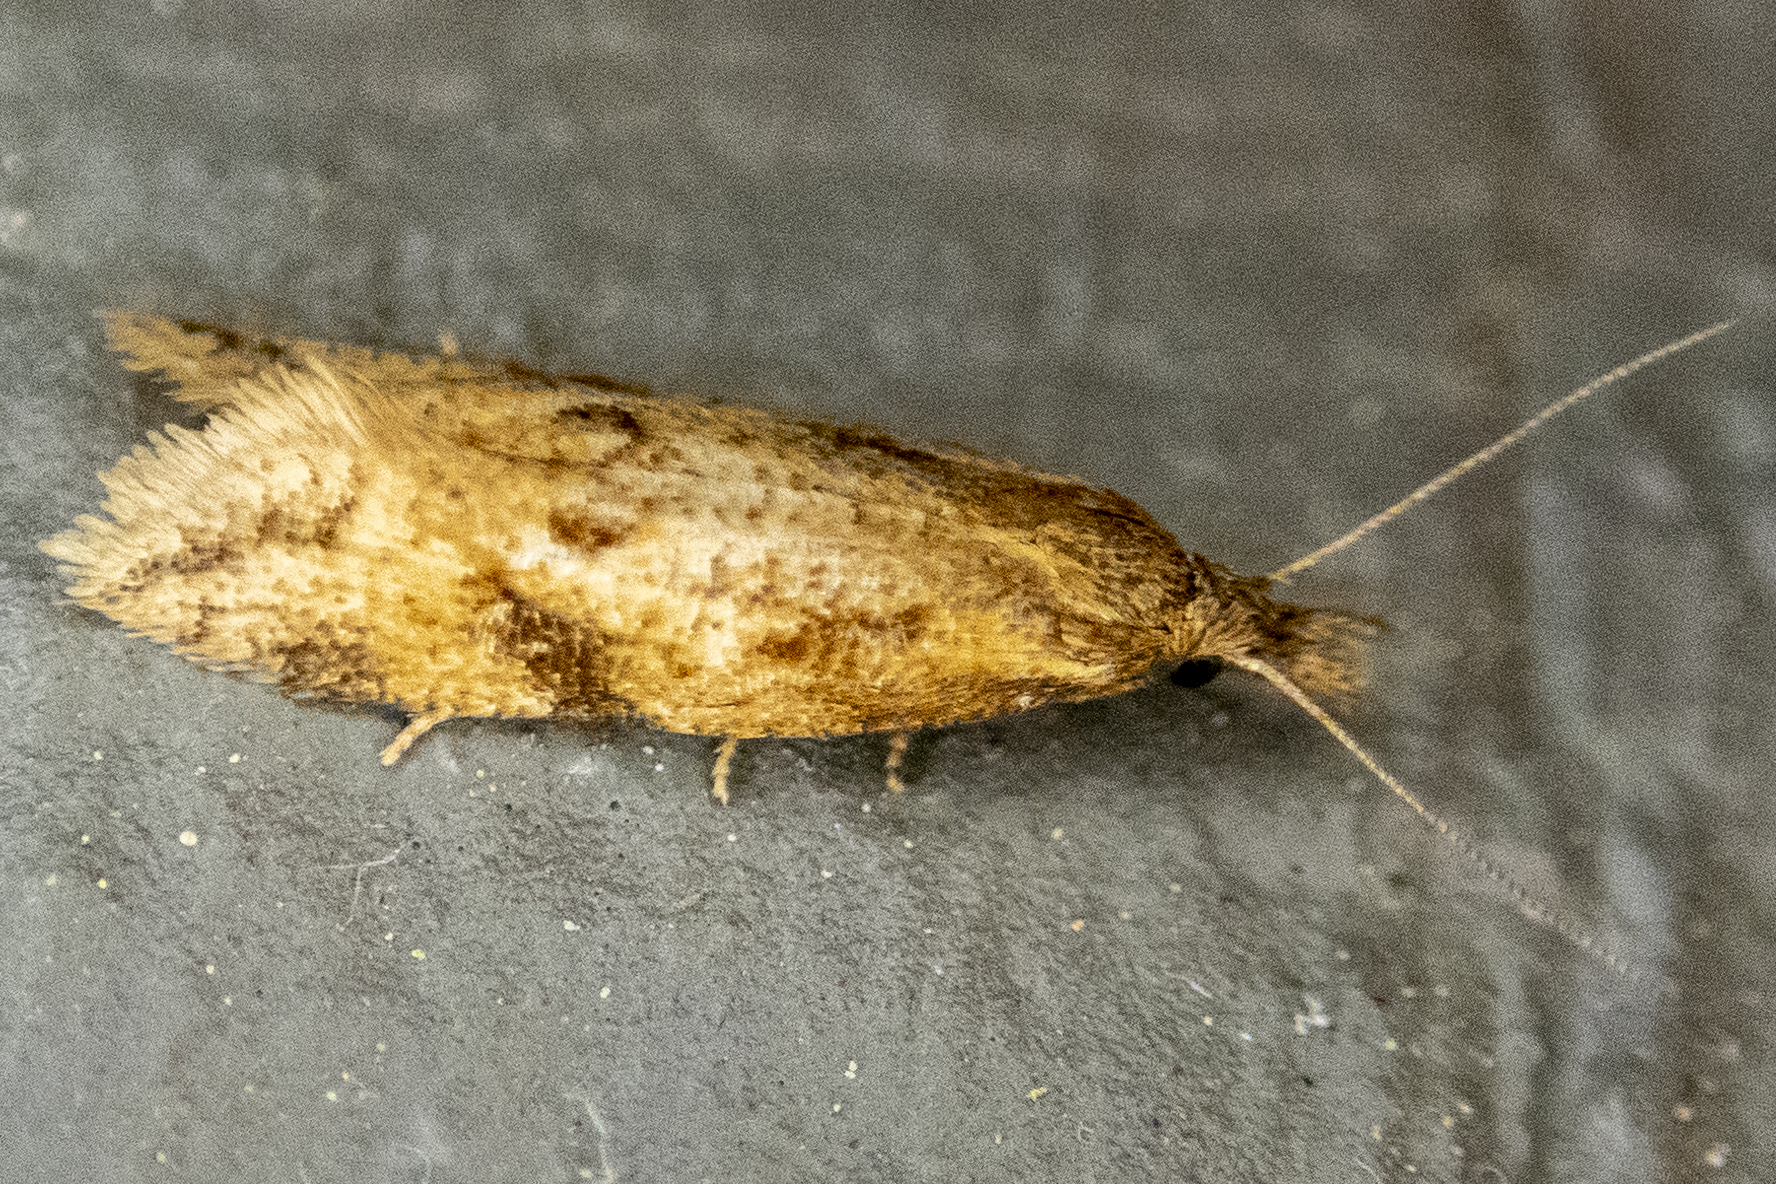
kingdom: Animalia
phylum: Arthropoda
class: Insecta
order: Lepidoptera
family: Tortricidae
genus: Aethes
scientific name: Aethes biscana
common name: Reddish aethes
